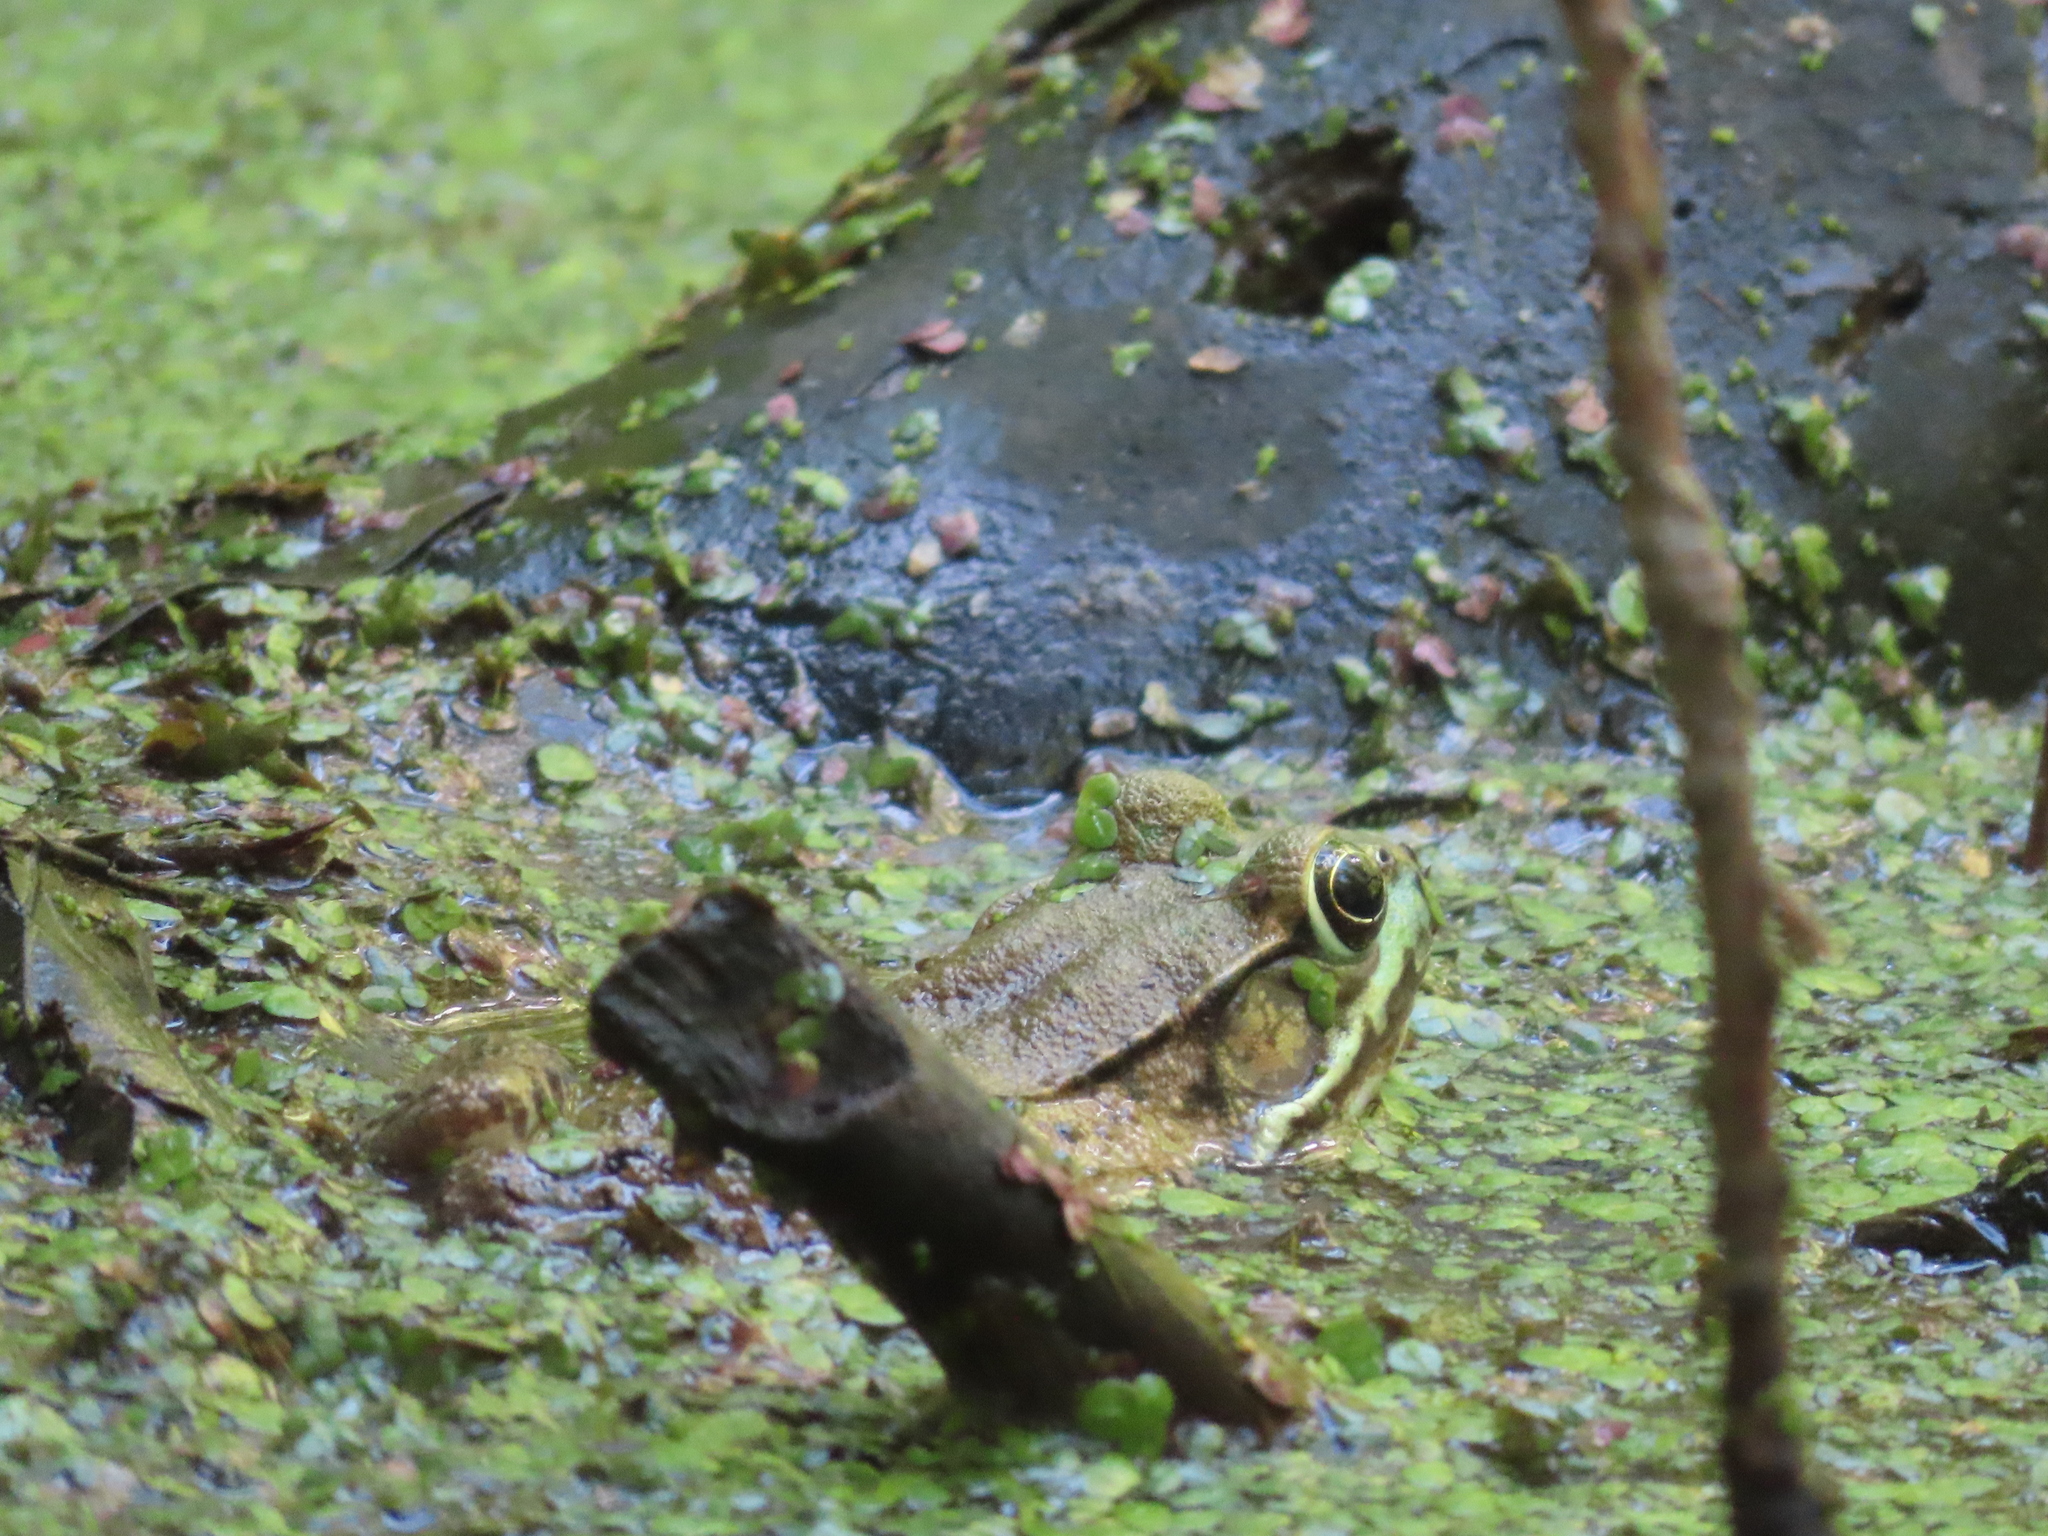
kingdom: Animalia
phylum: Chordata
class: Amphibia
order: Anura
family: Ranidae
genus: Lithobates
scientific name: Lithobates clamitans
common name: Green frog
